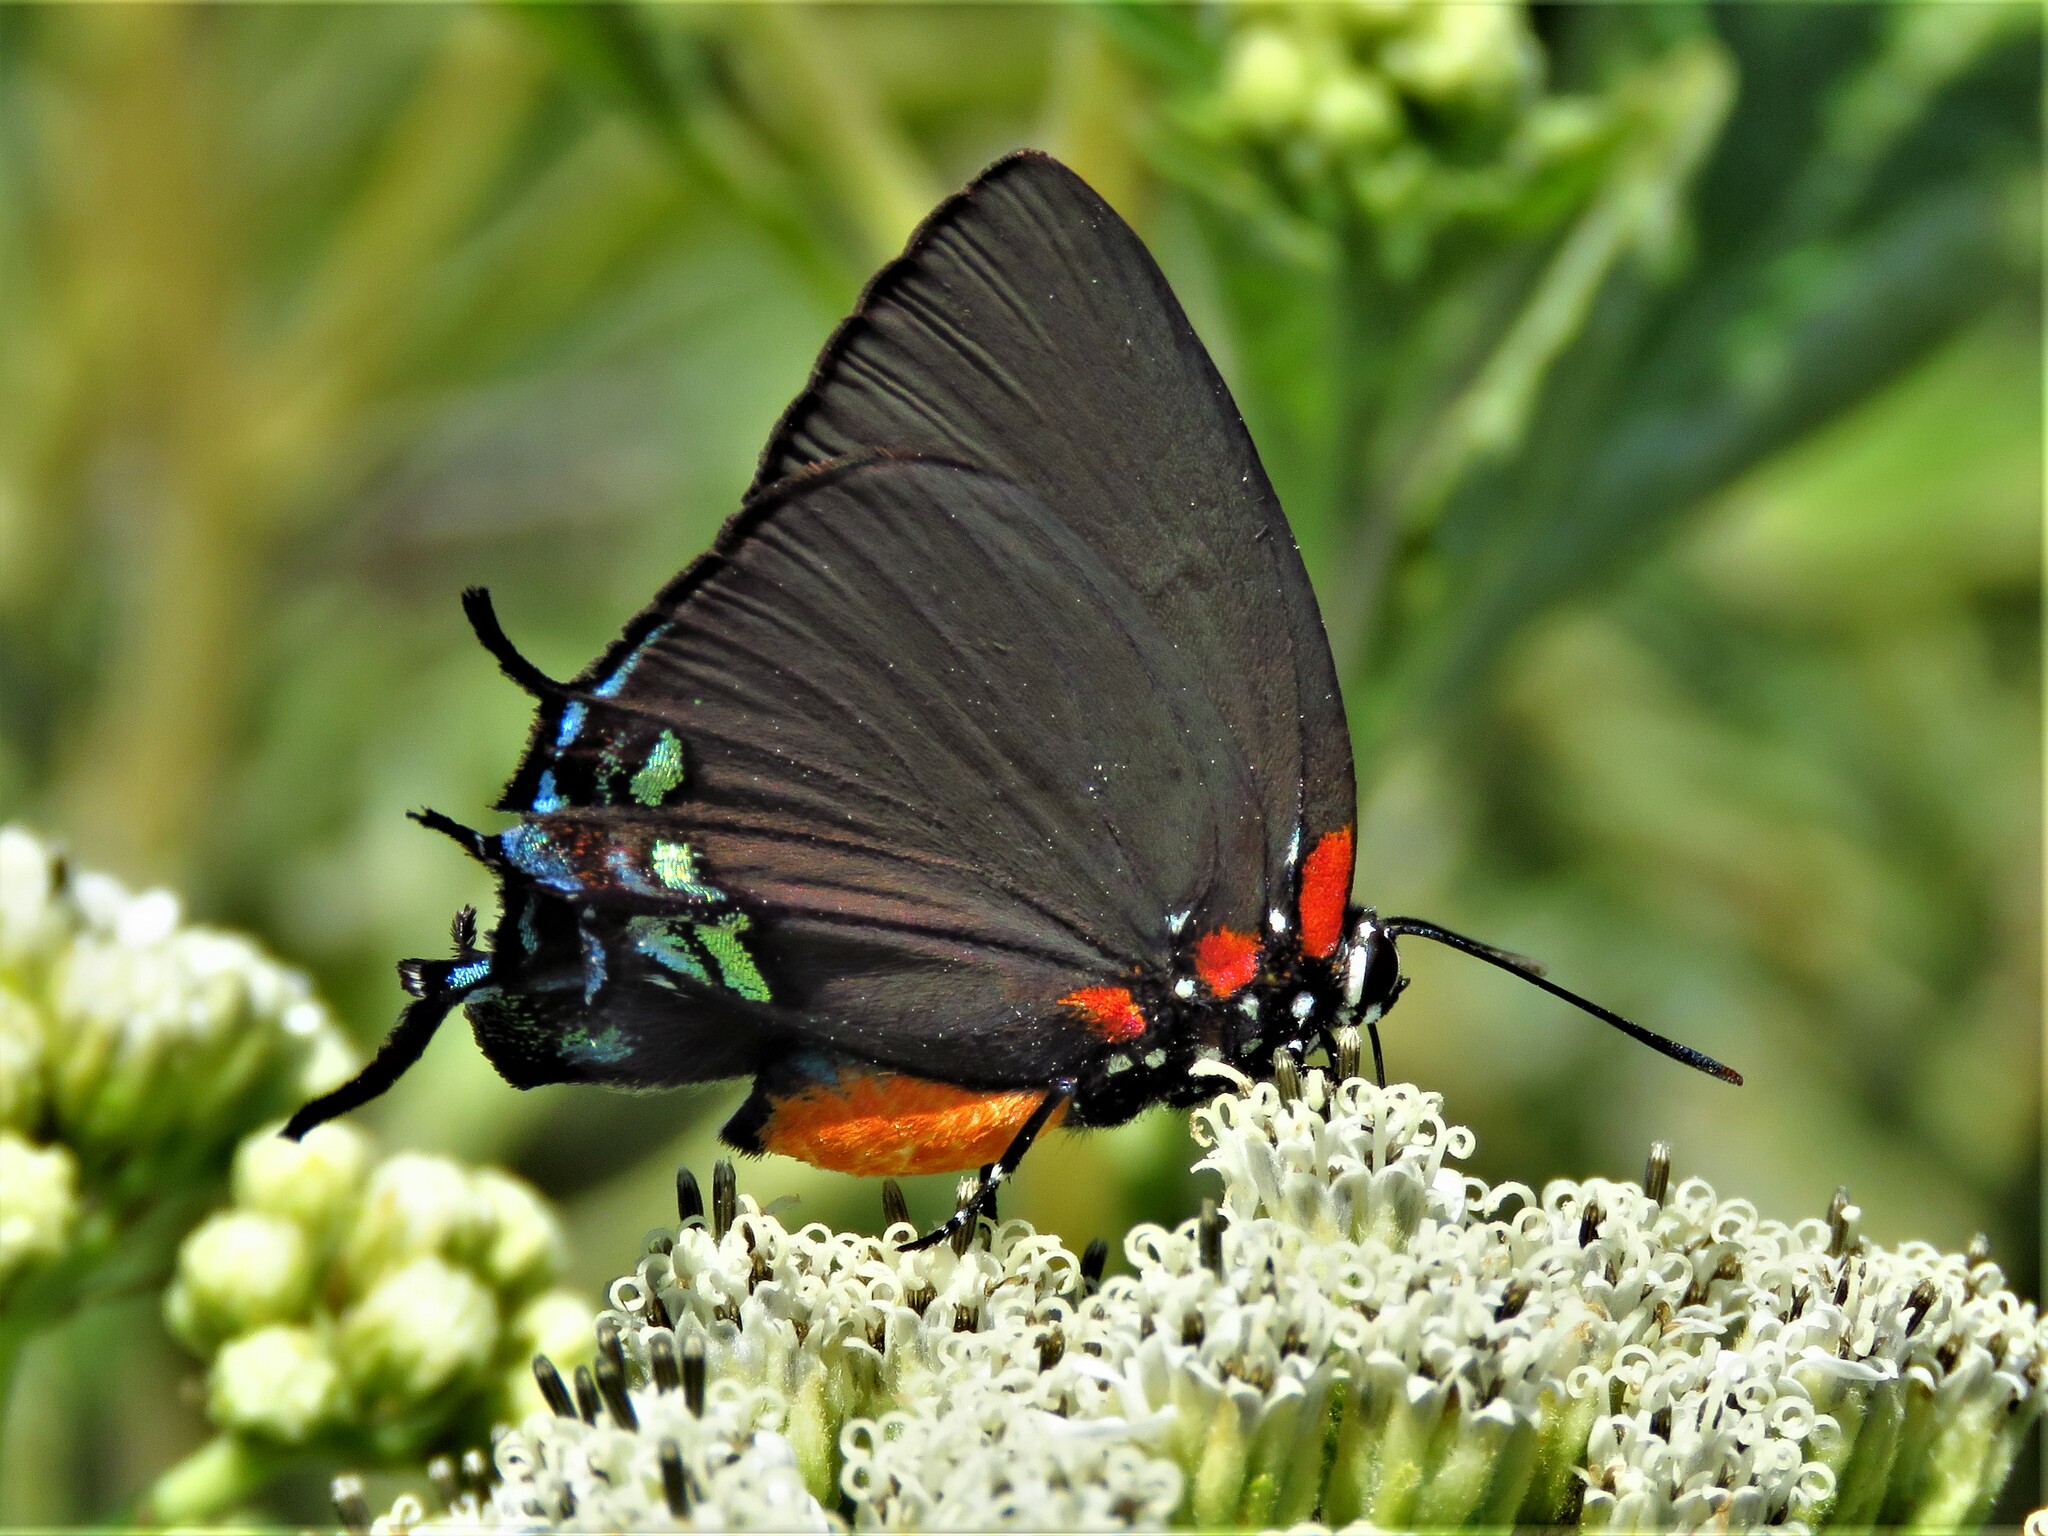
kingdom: Animalia
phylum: Arthropoda
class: Insecta
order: Lepidoptera
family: Lycaenidae
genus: Atlides
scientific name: Atlides halesus
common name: Great purple hairstreak
